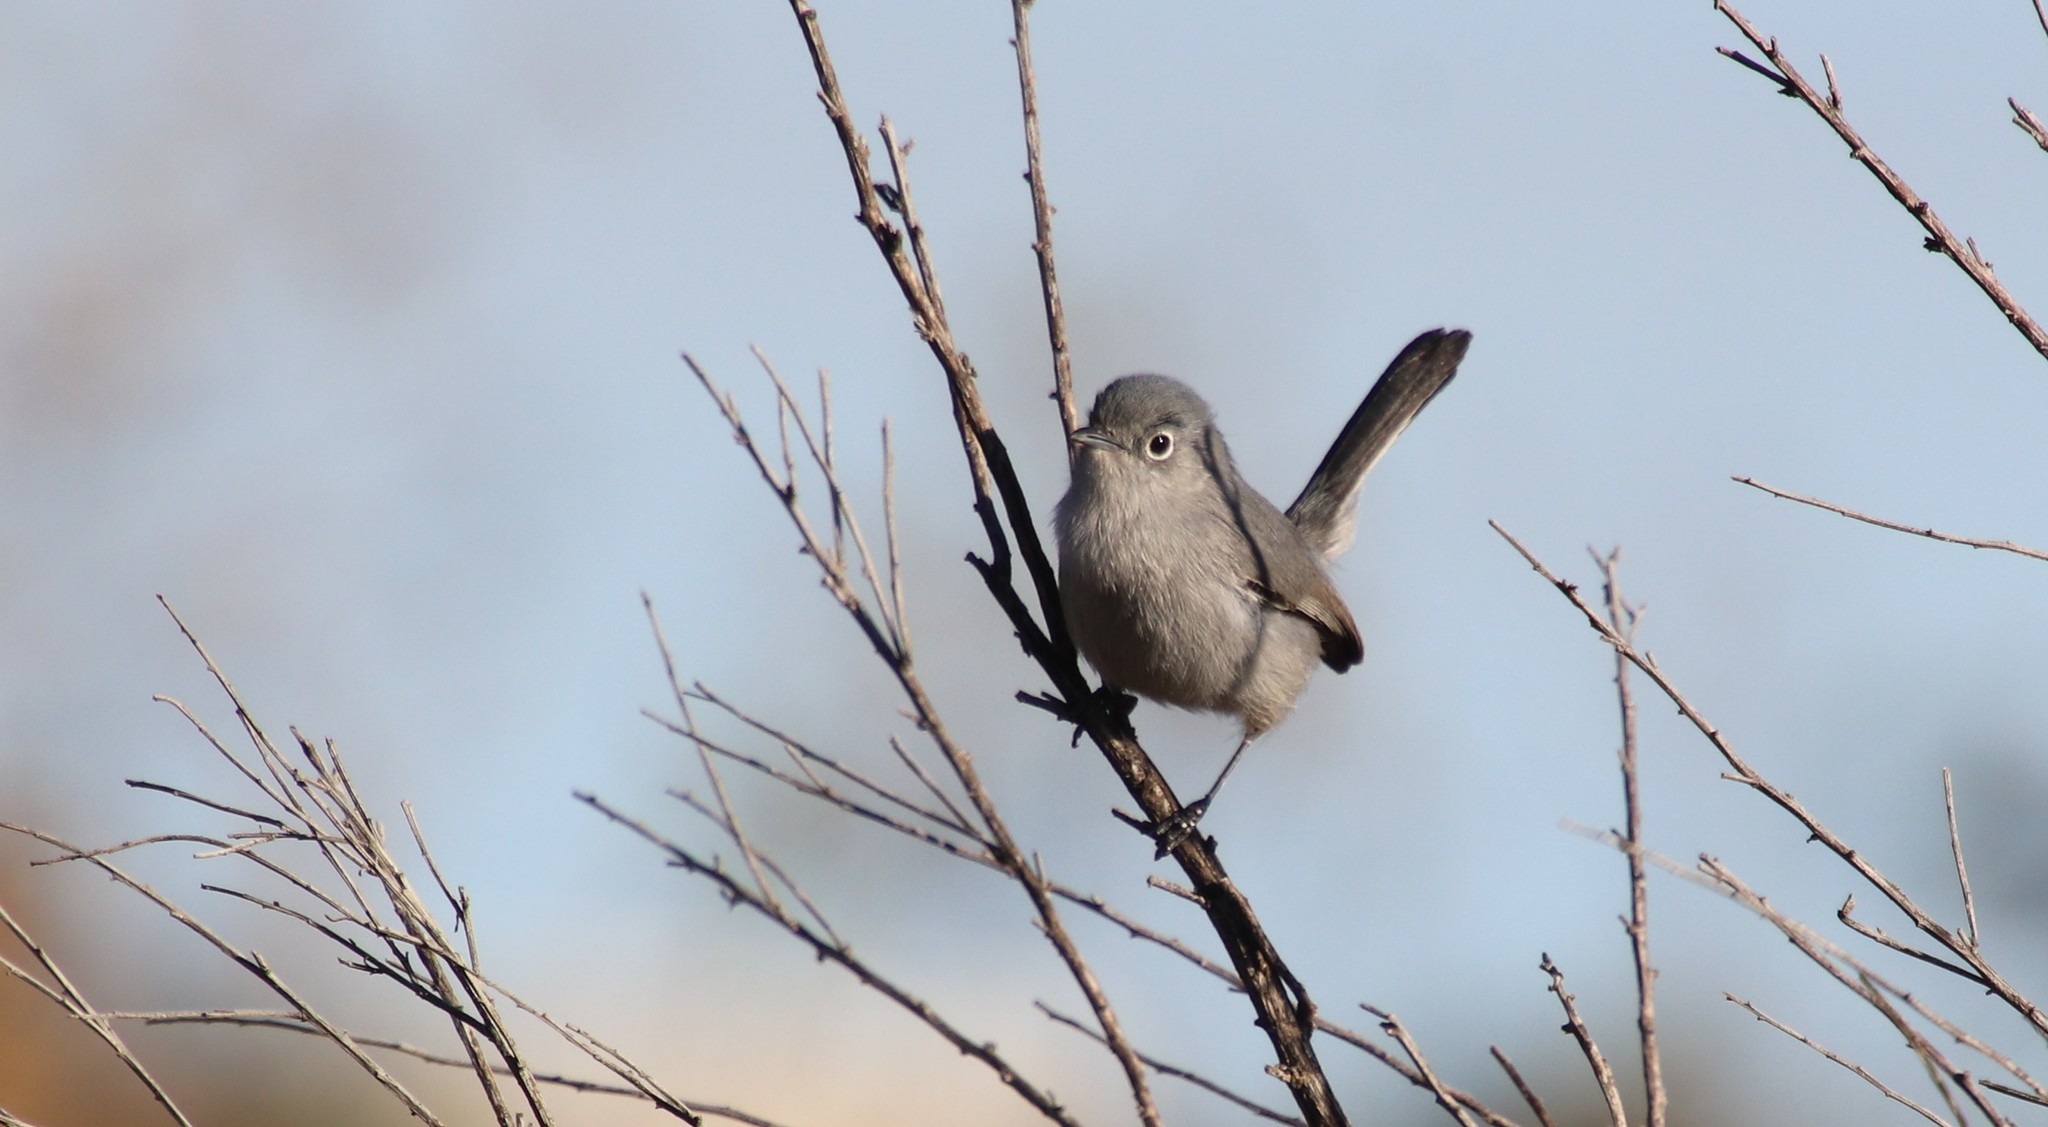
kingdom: Animalia
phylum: Chordata
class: Aves
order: Passeriformes
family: Polioptilidae
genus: Polioptila
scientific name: Polioptila californica
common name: California gnatcatcher
